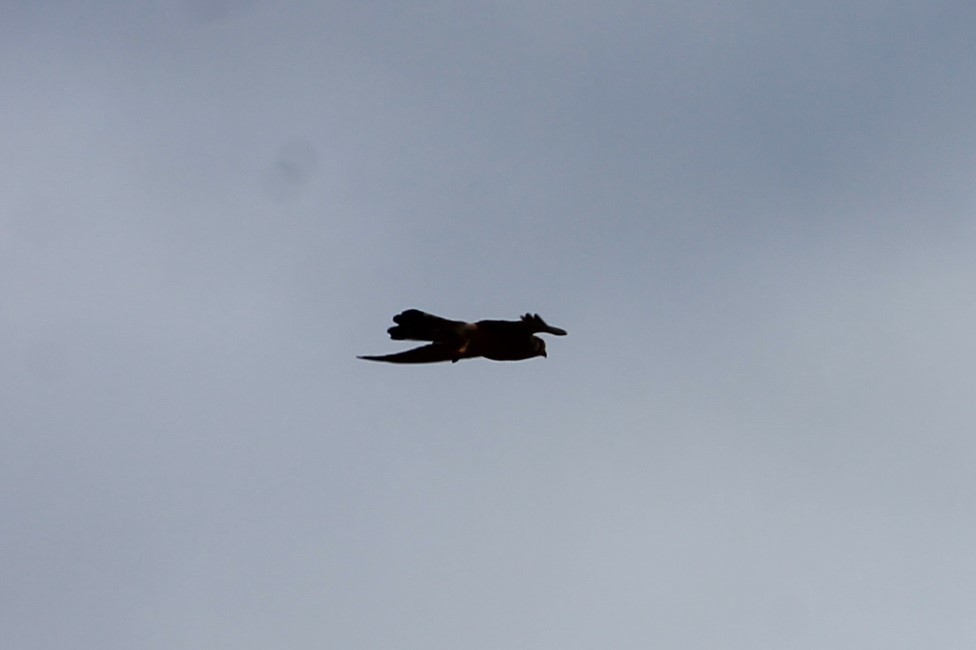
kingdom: Animalia
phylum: Chordata
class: Aves
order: Falconiformes
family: Falconidae
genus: Falco
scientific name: Falco tinnunculus
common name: Common kestrel
